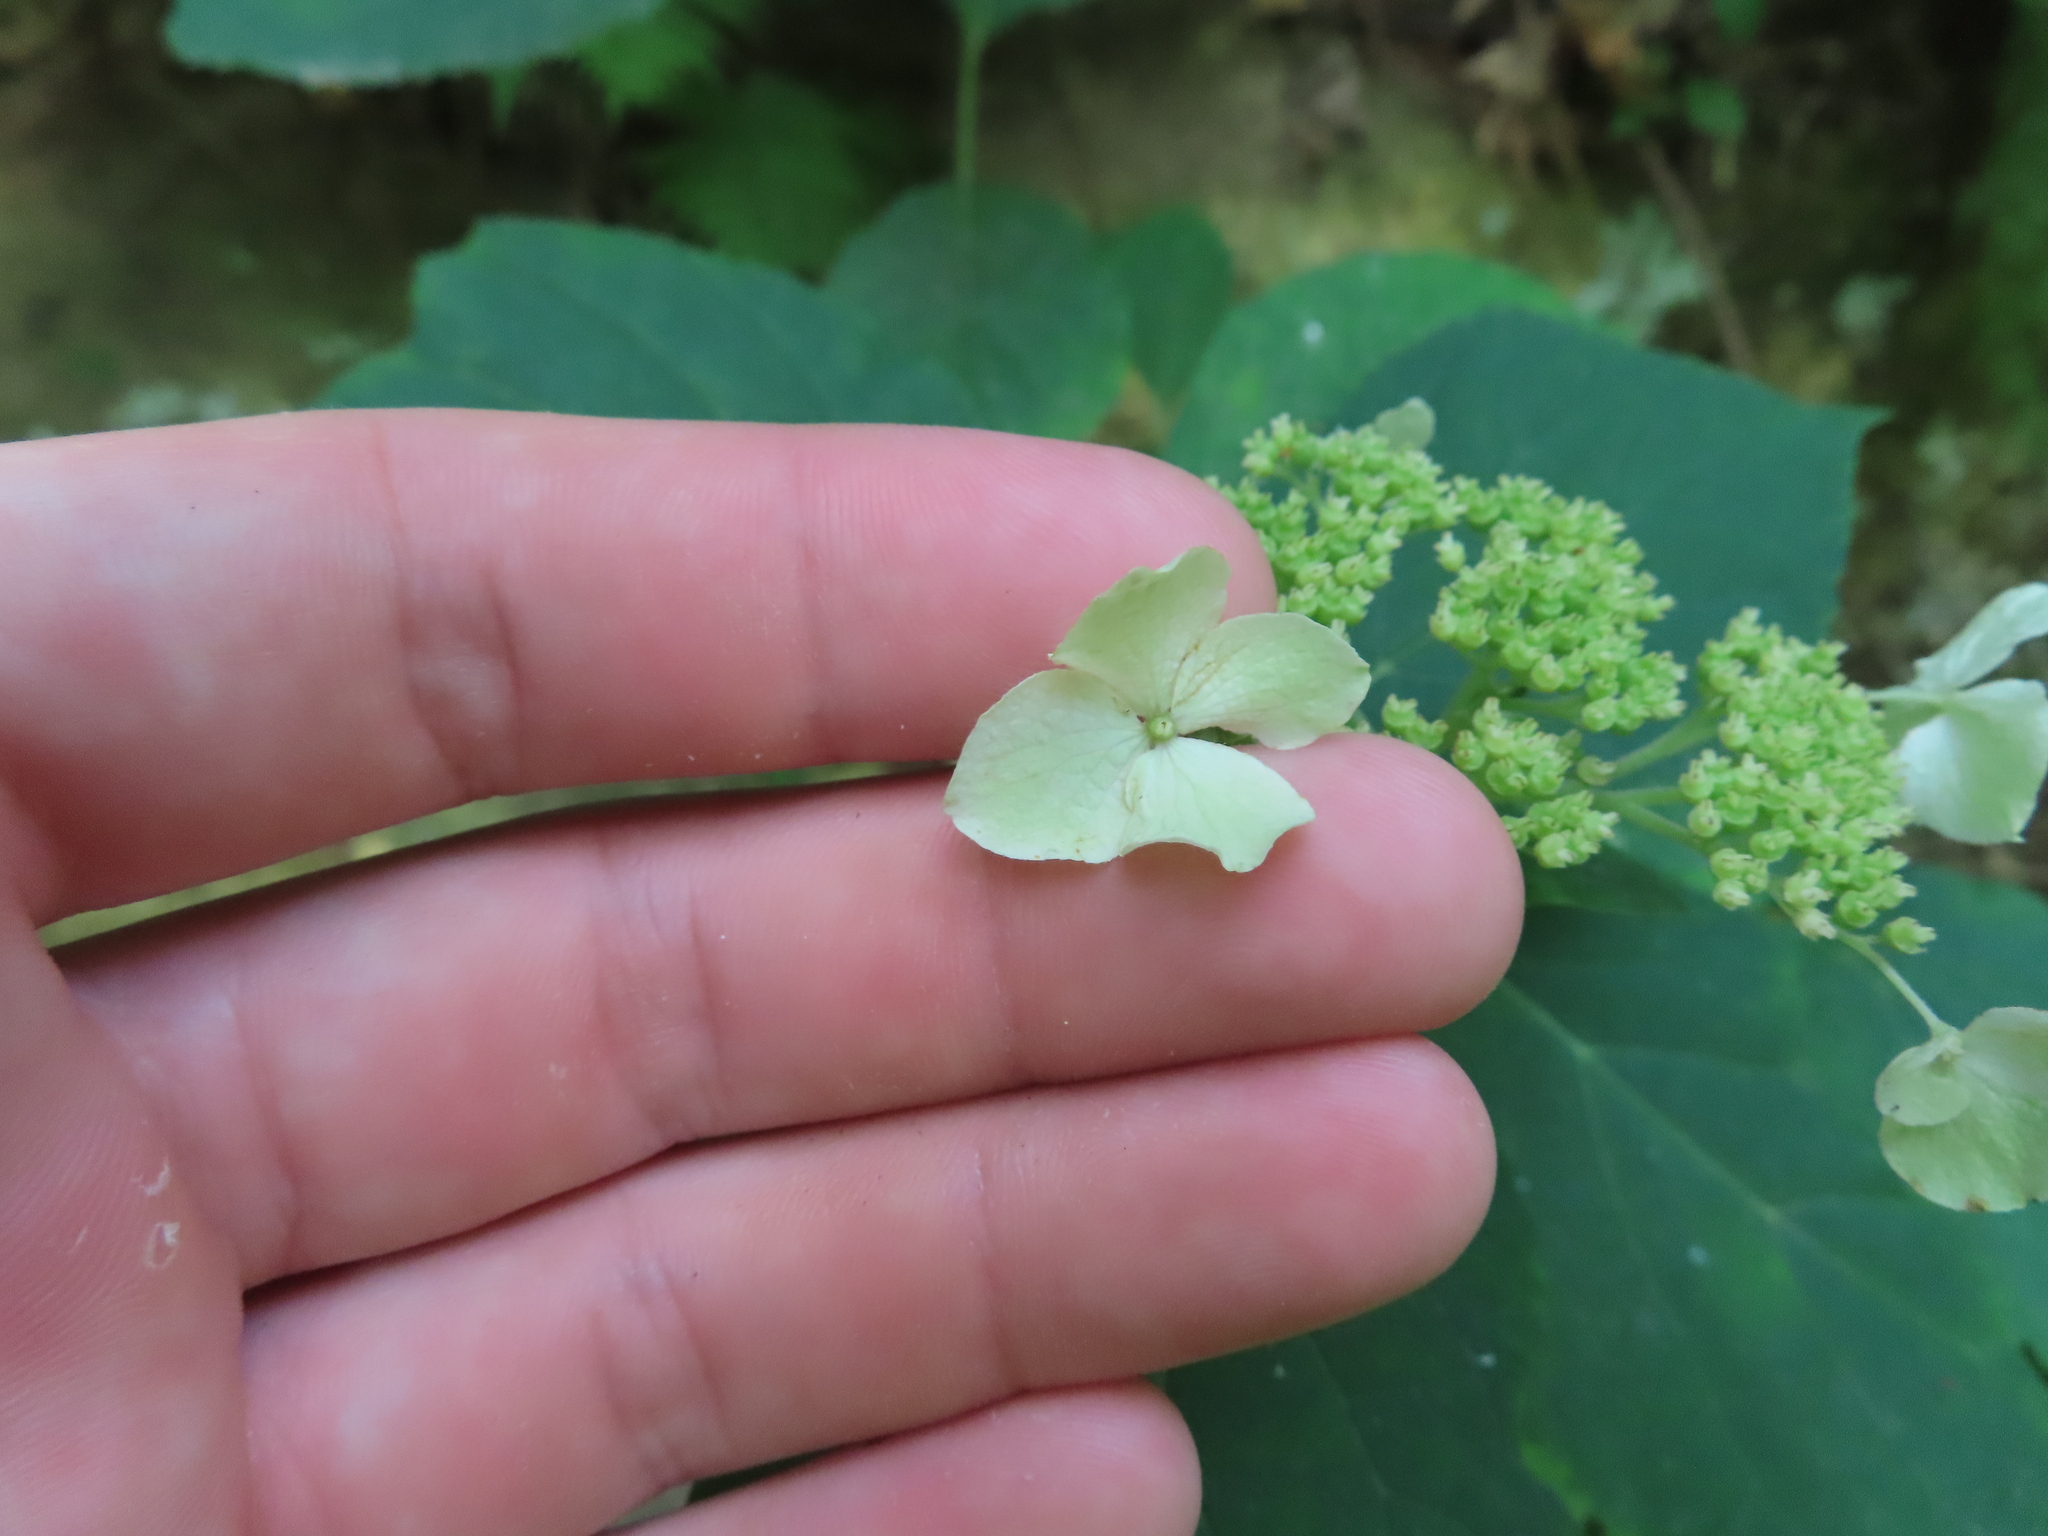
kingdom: Plantae
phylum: Tracheophyta
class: Magnoliopsida
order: Cornales
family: Hydrangeaceae
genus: Hydrangea
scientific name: Hydrangea arborescens
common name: Sevenbark
